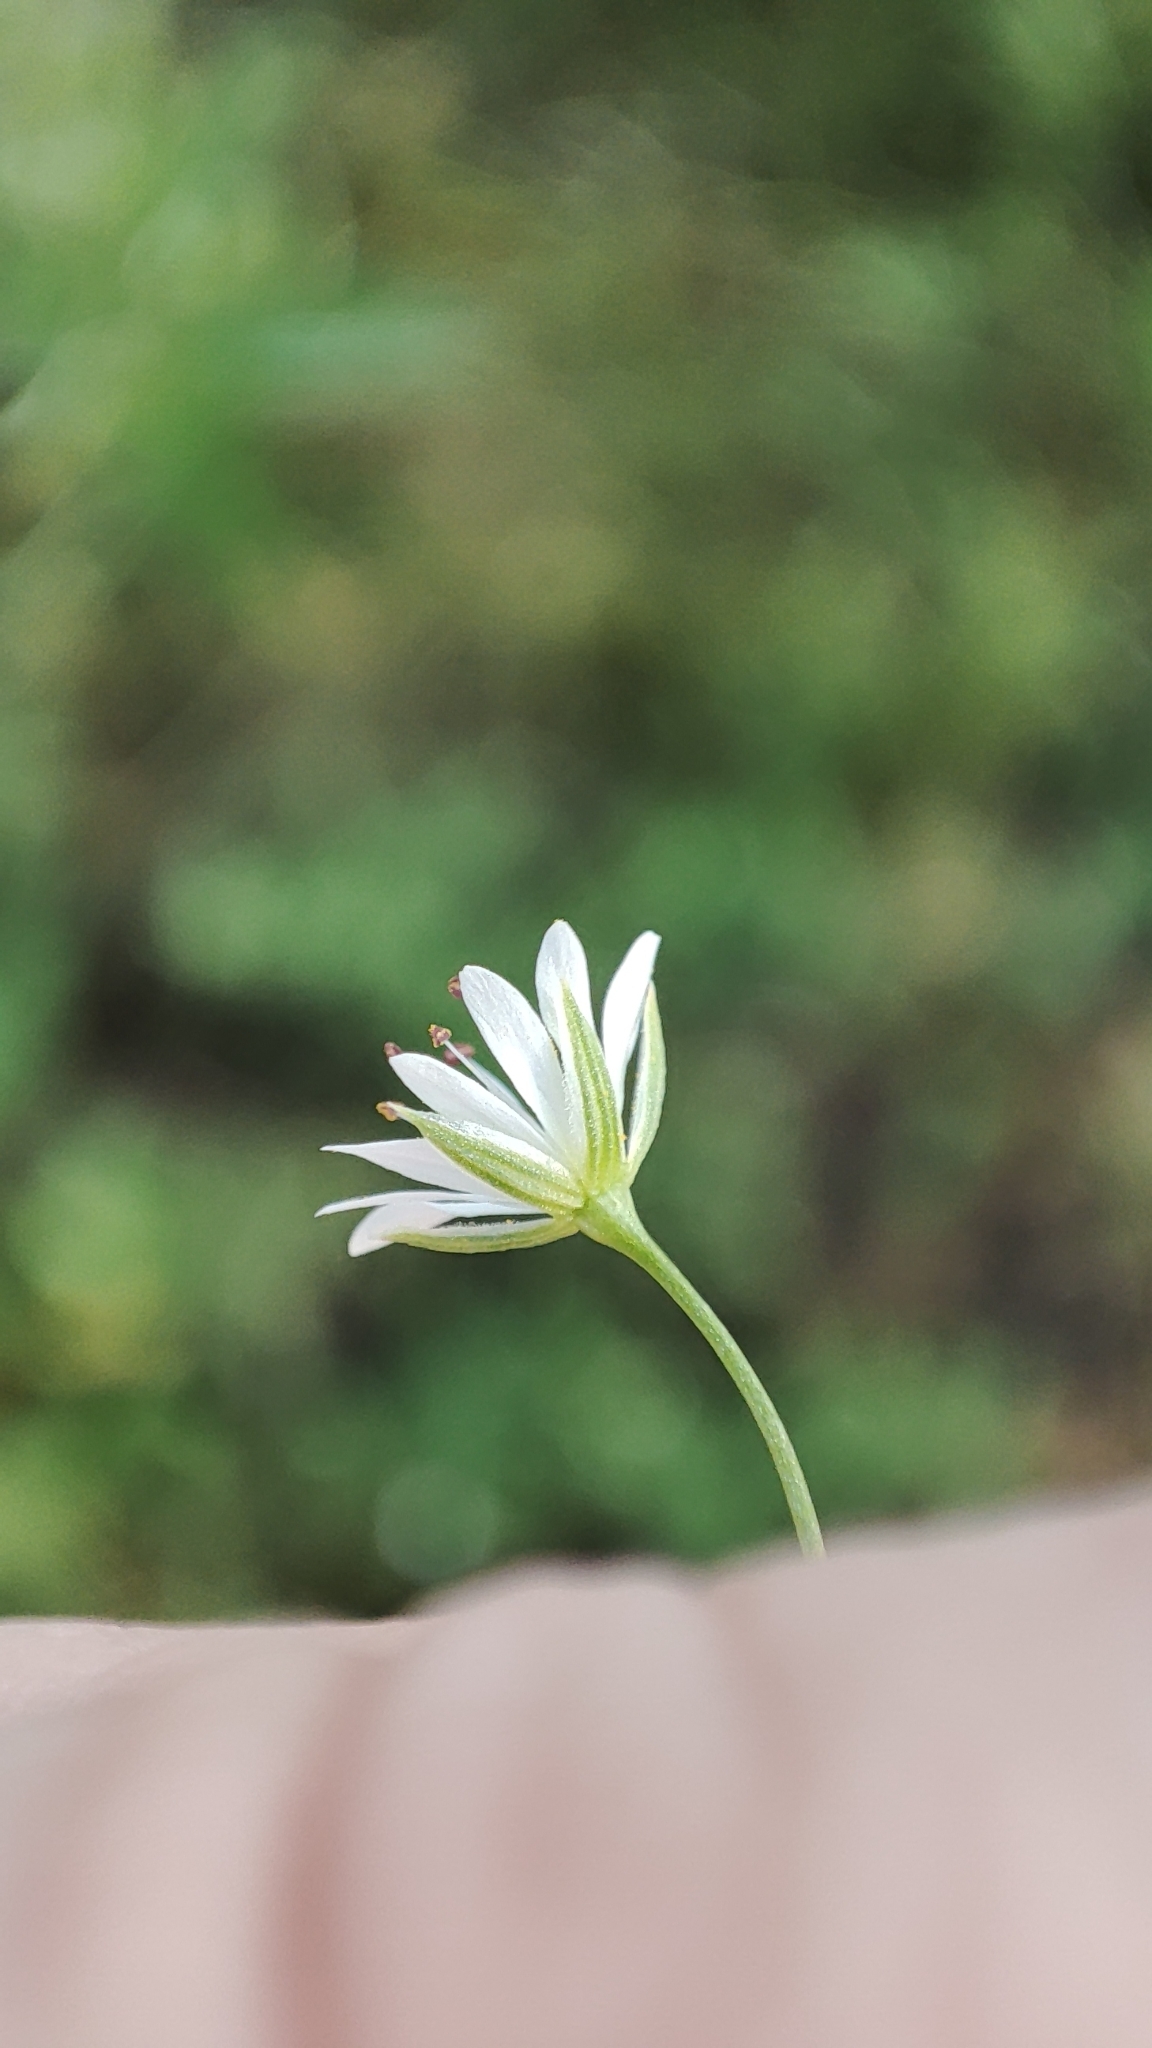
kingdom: Plantae
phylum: Tracheophyta
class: Magnoliopsida
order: Caryophyllales
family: Caryophyllaceae
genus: Stellaria
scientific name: Stellaria graminea
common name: Grass-like starwort
